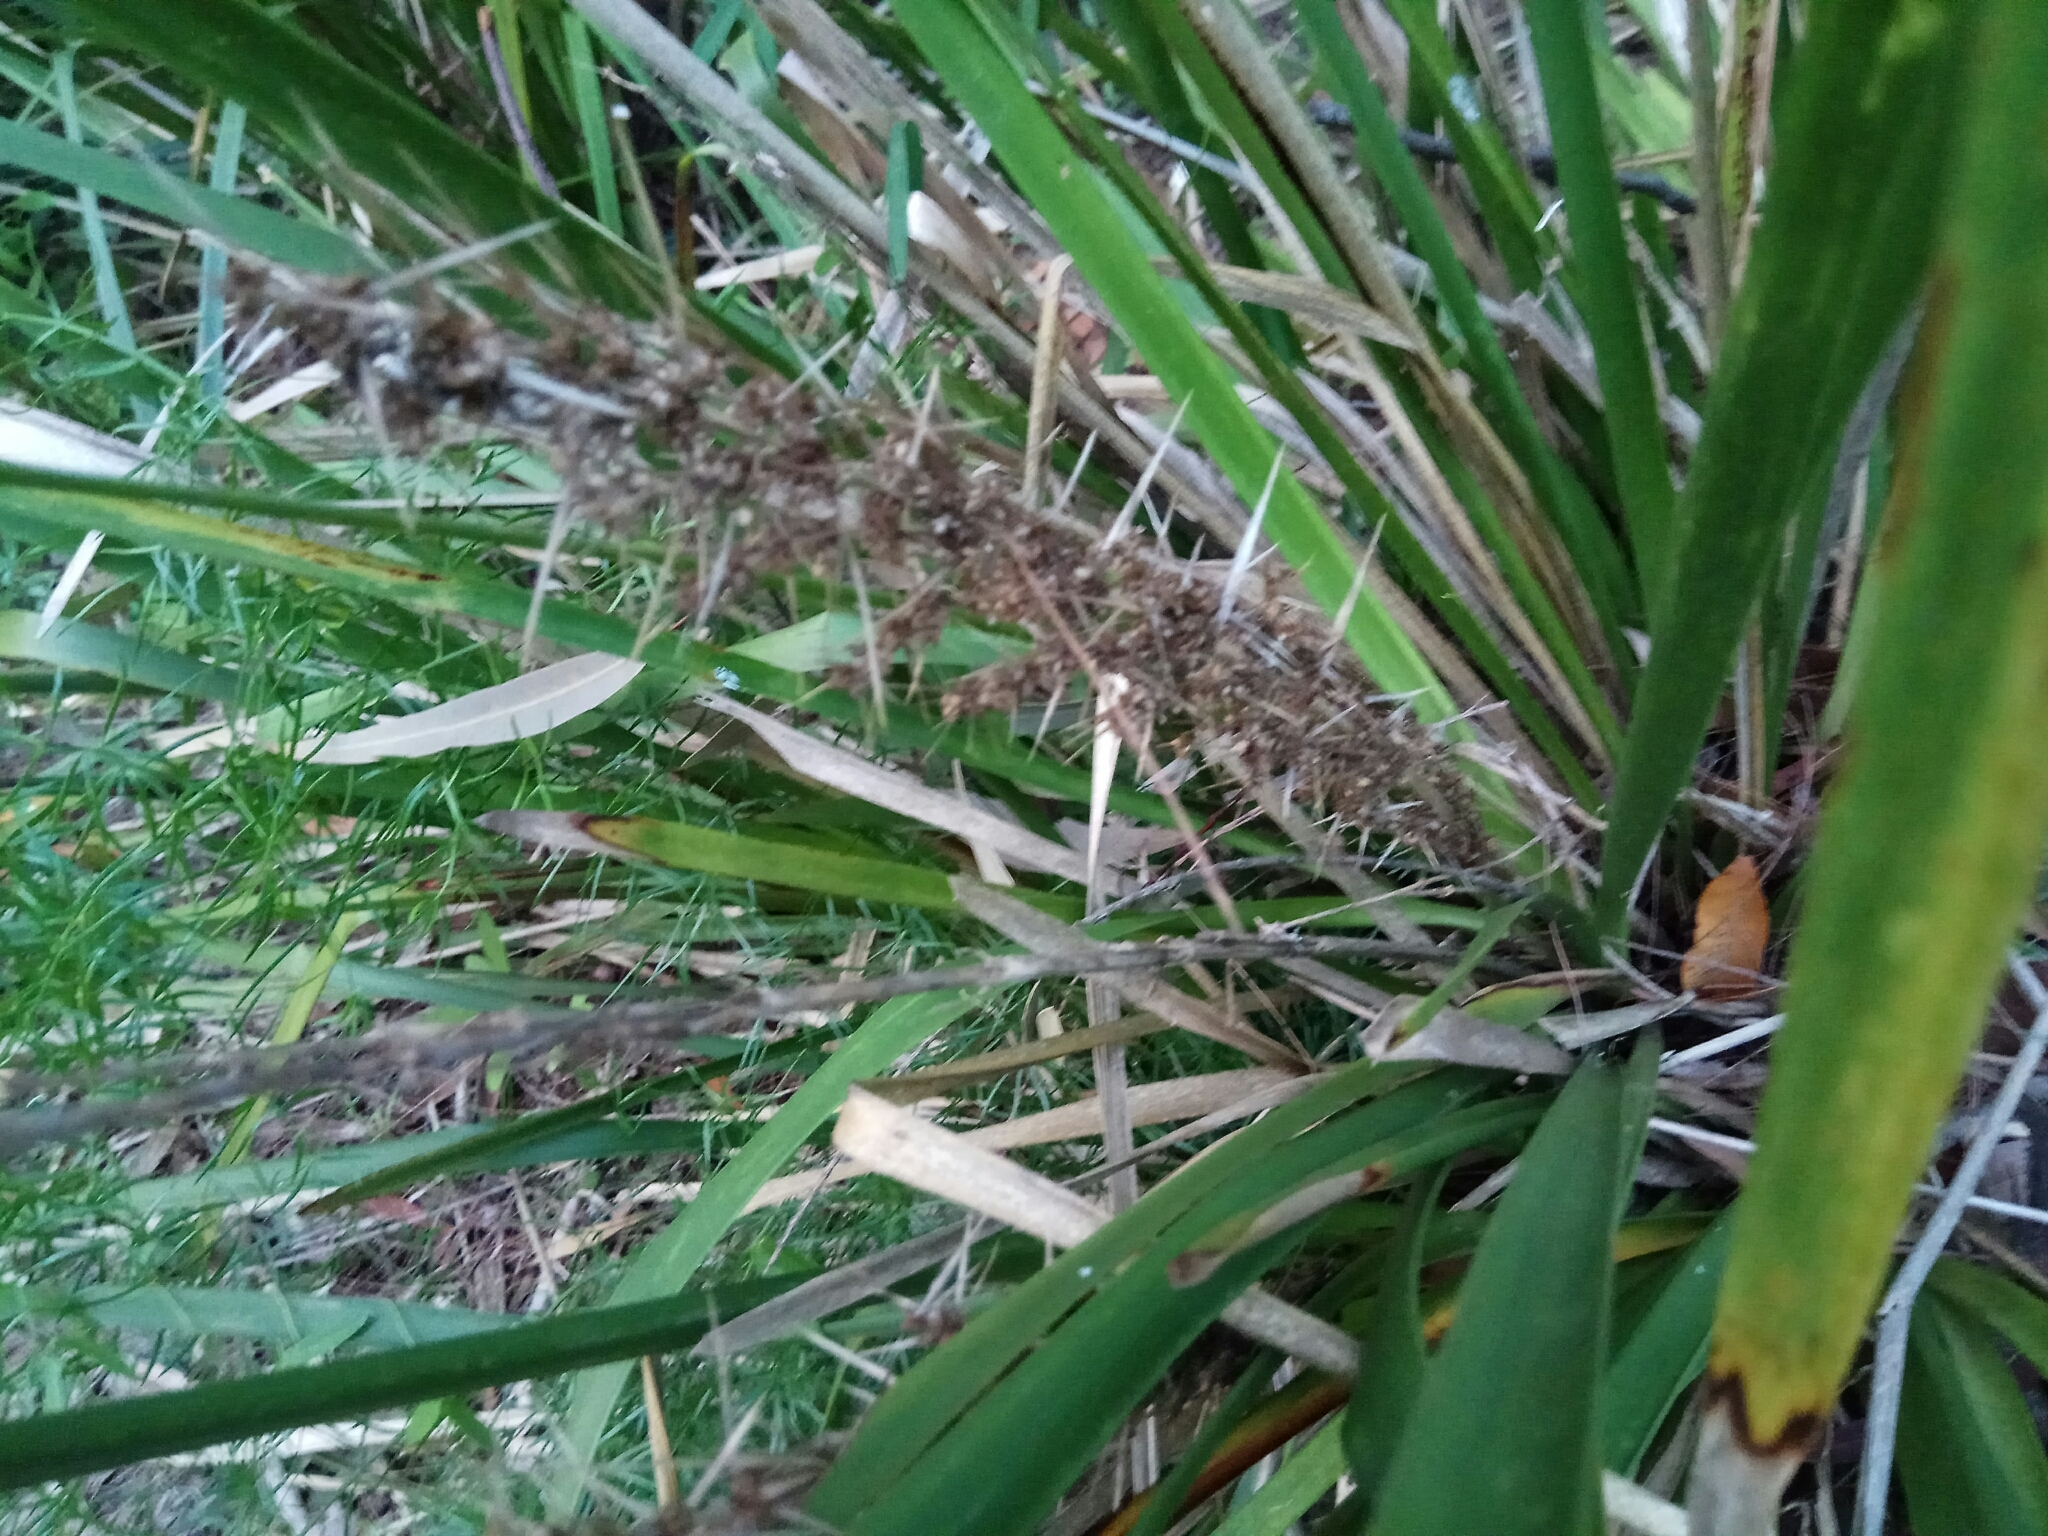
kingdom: Plantae
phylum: Tracheophyta
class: Liliopsida
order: Asparagales
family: Asparagaceae
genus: Lomandra
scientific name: Lomandra longifolia
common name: Longleaf mat-rush
